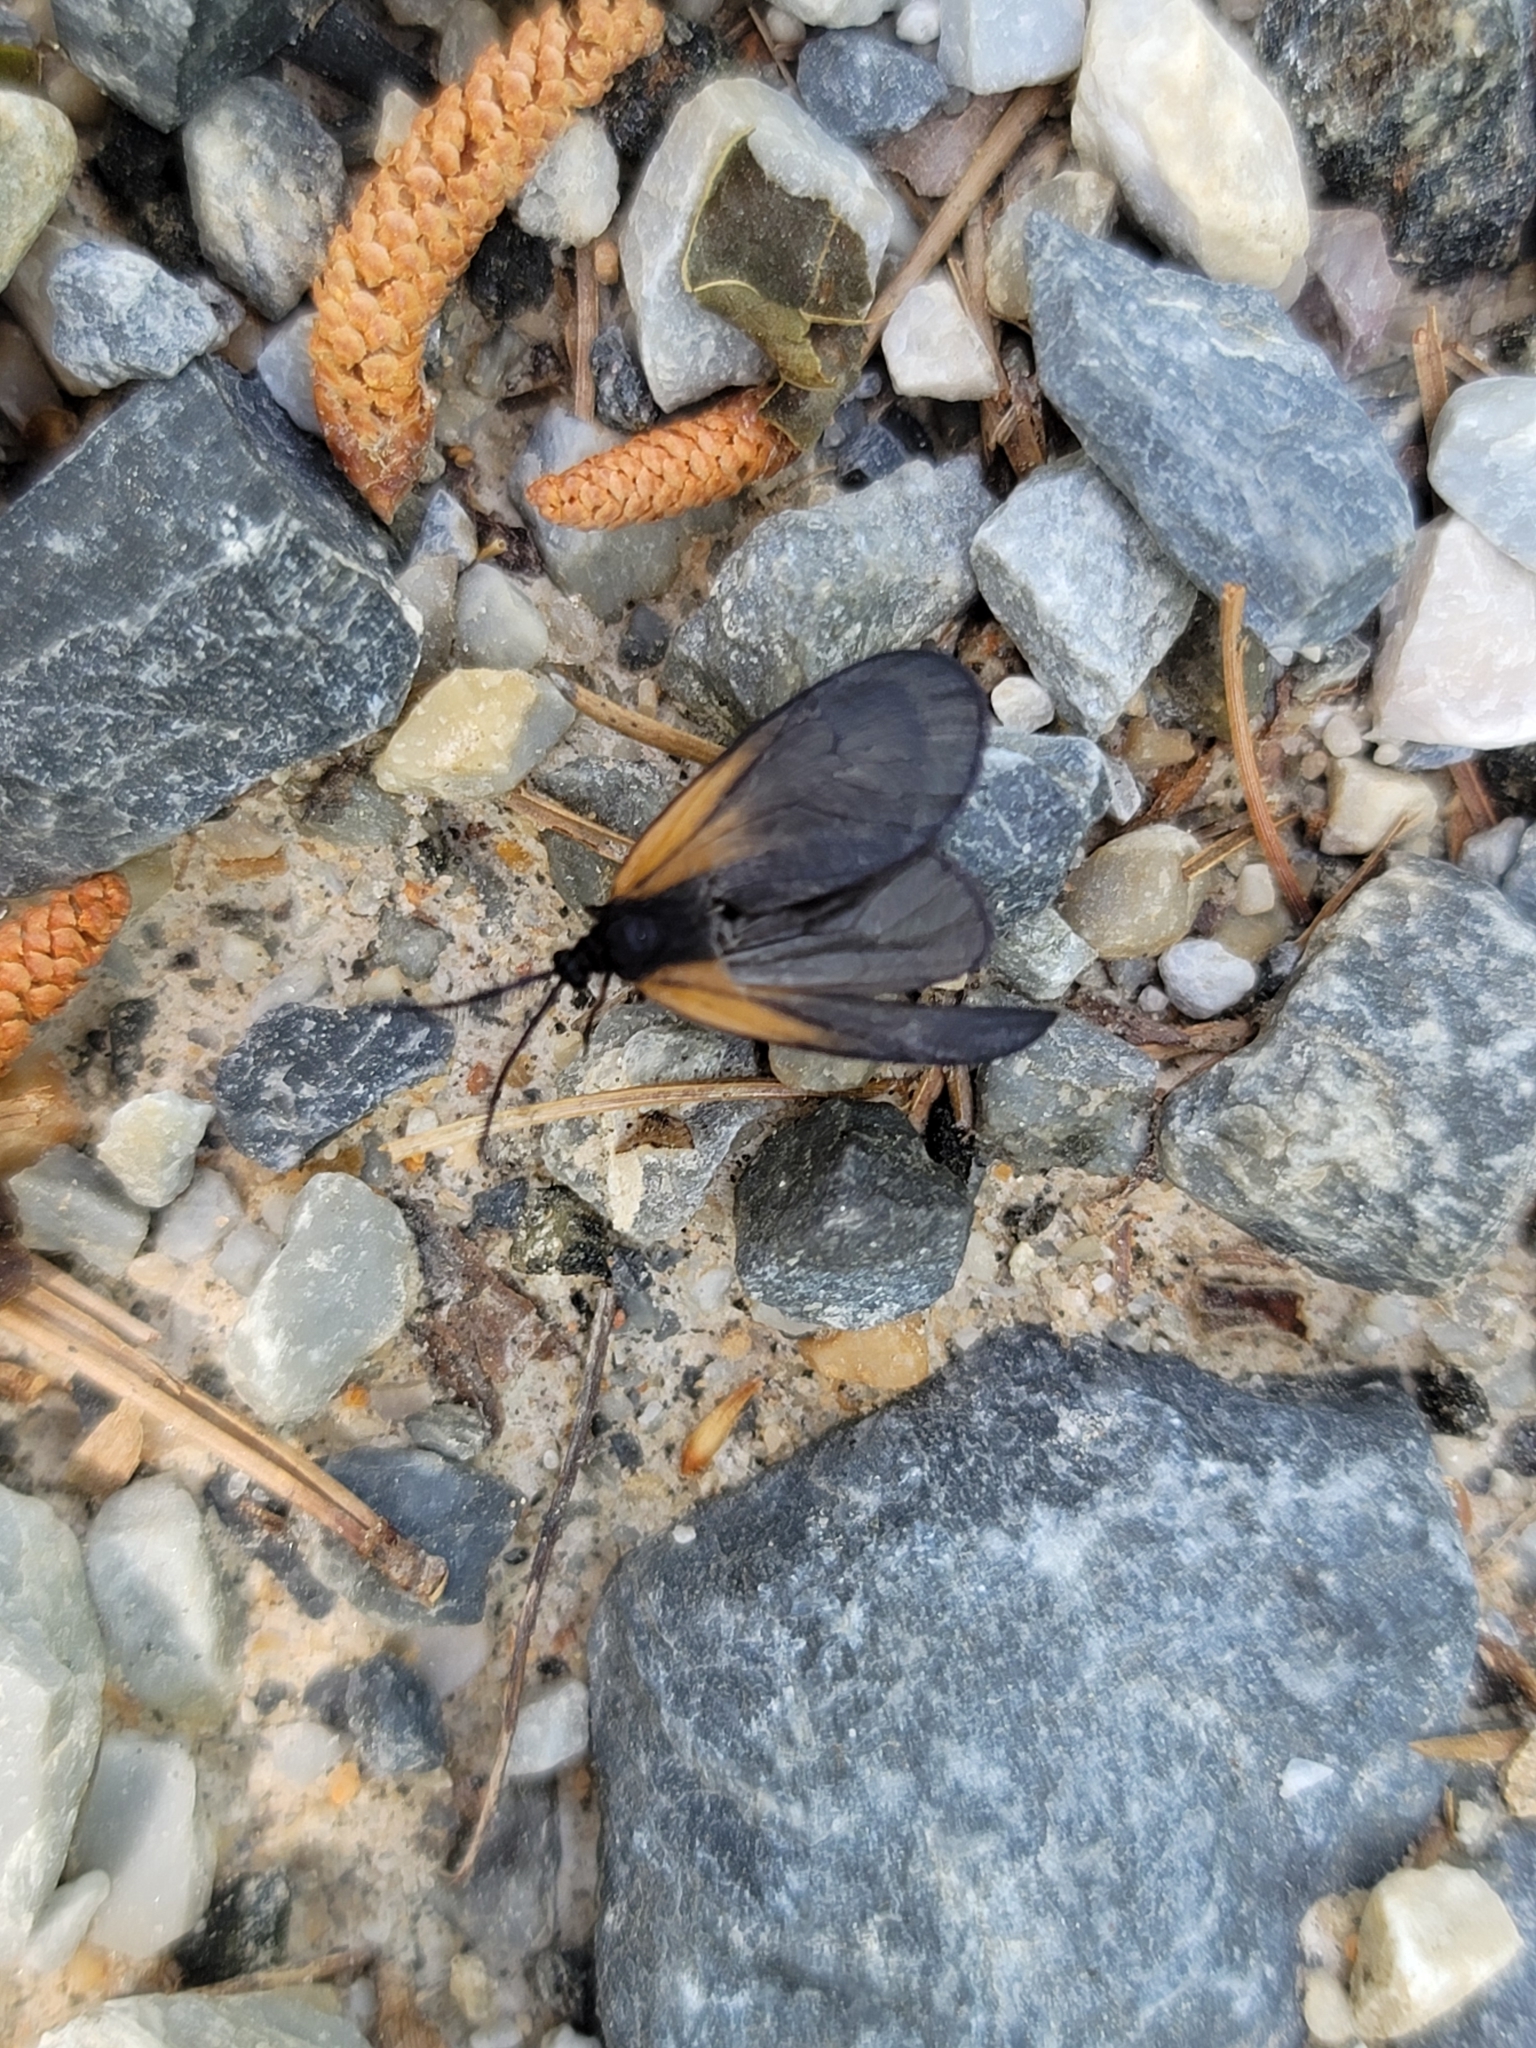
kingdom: Animalia
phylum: Arthropoda
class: Insecta
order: Lepidoptera
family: Zygaenidae
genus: Malthaca
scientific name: Malthaca dimidiata
